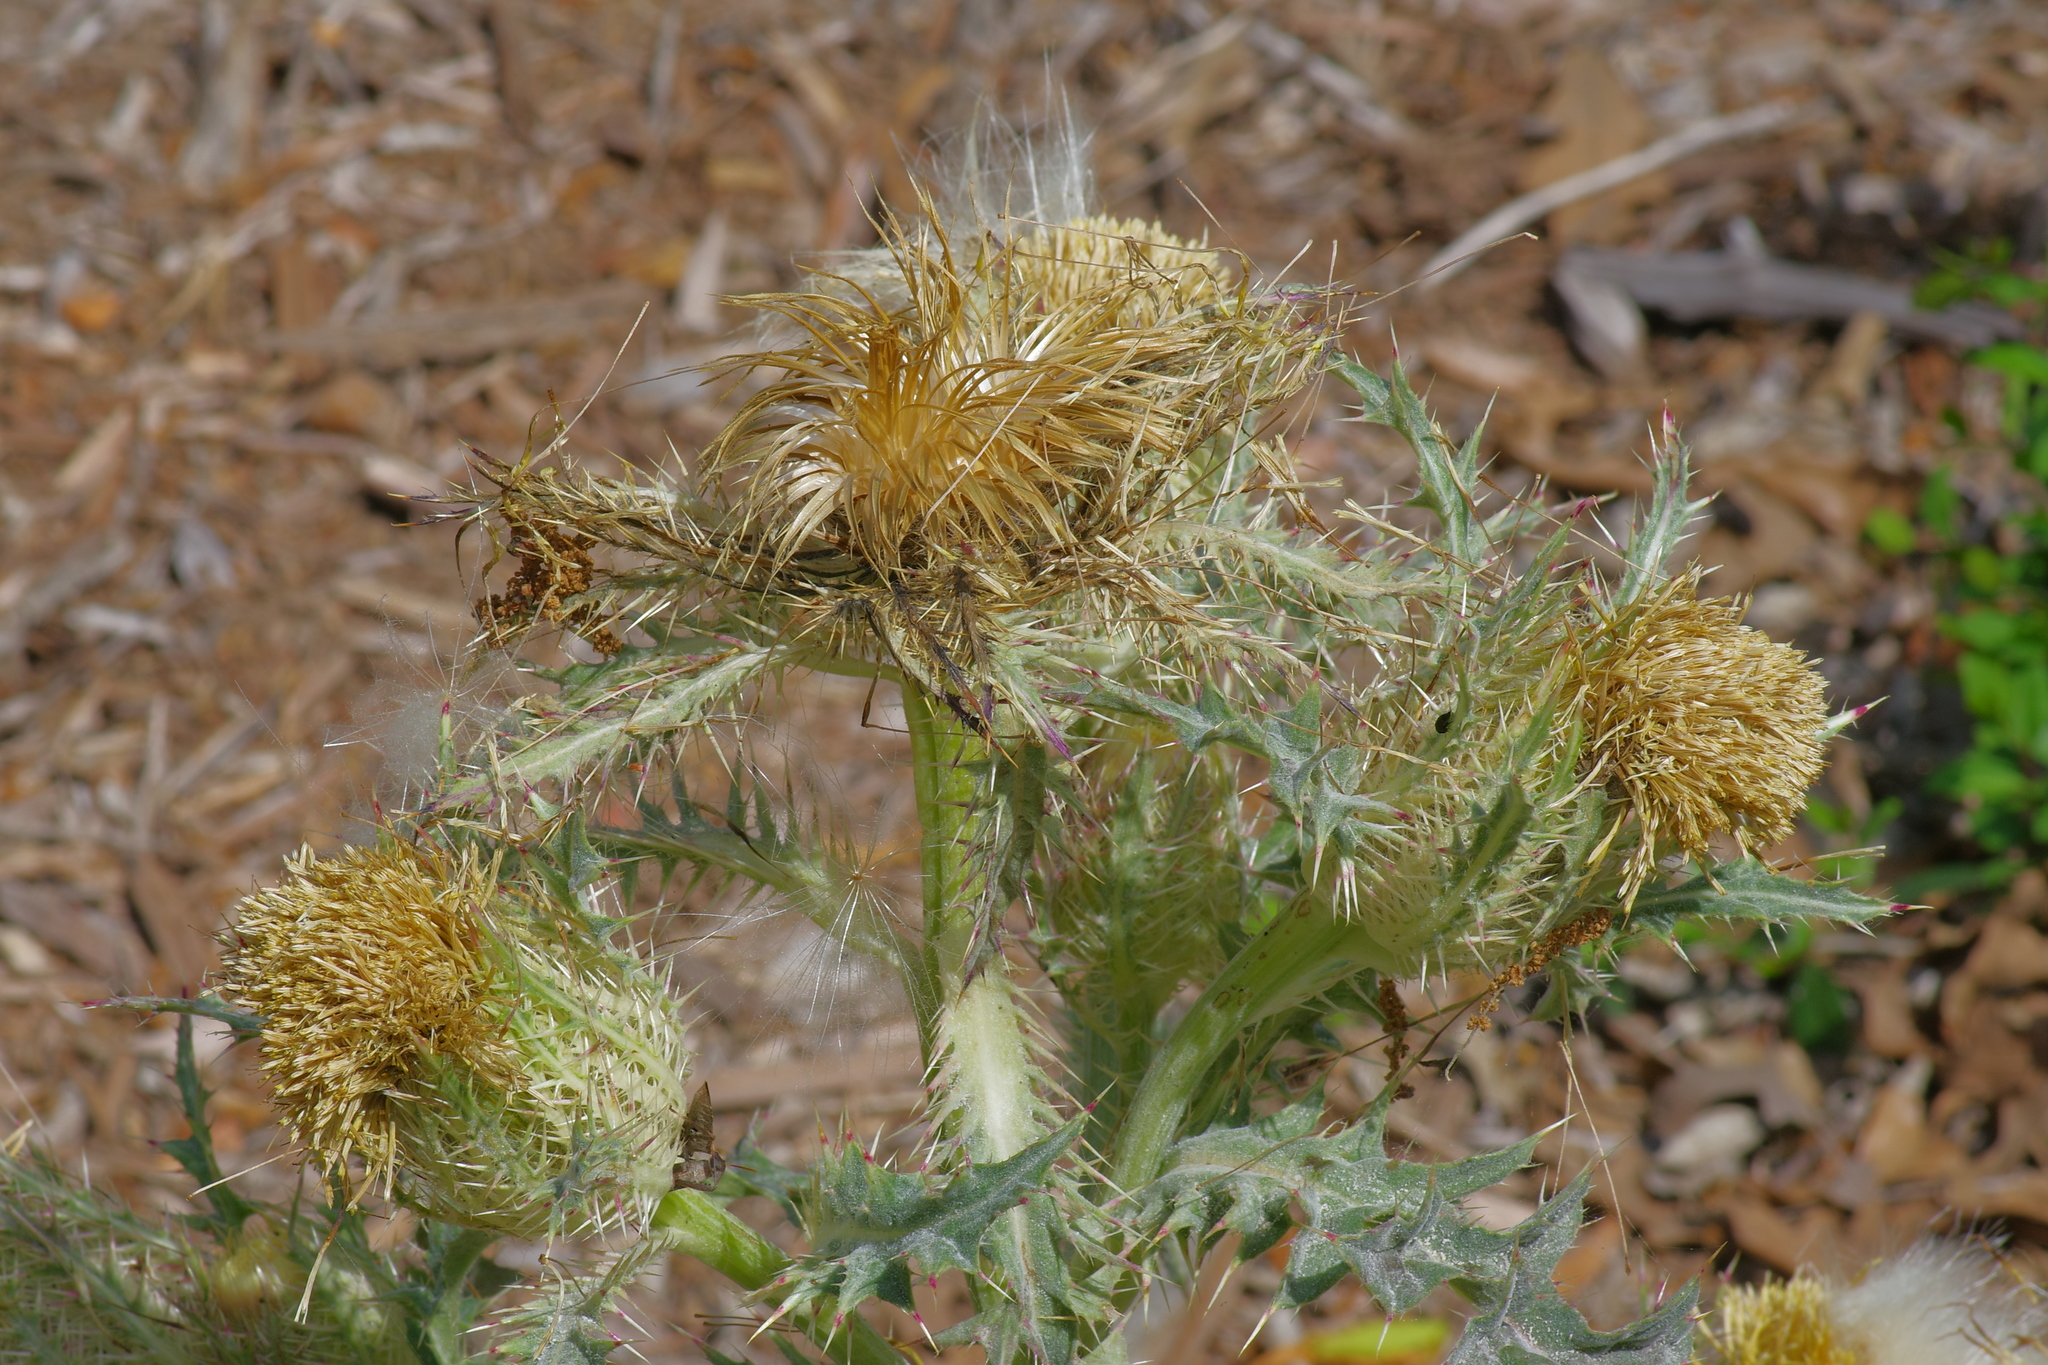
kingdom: Plantae
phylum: Tracheophyta
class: Magnoliopsida
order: Asterales
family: Asteraceae
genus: Cirsium
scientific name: Cirsium horridulum
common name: Bristly thistle
